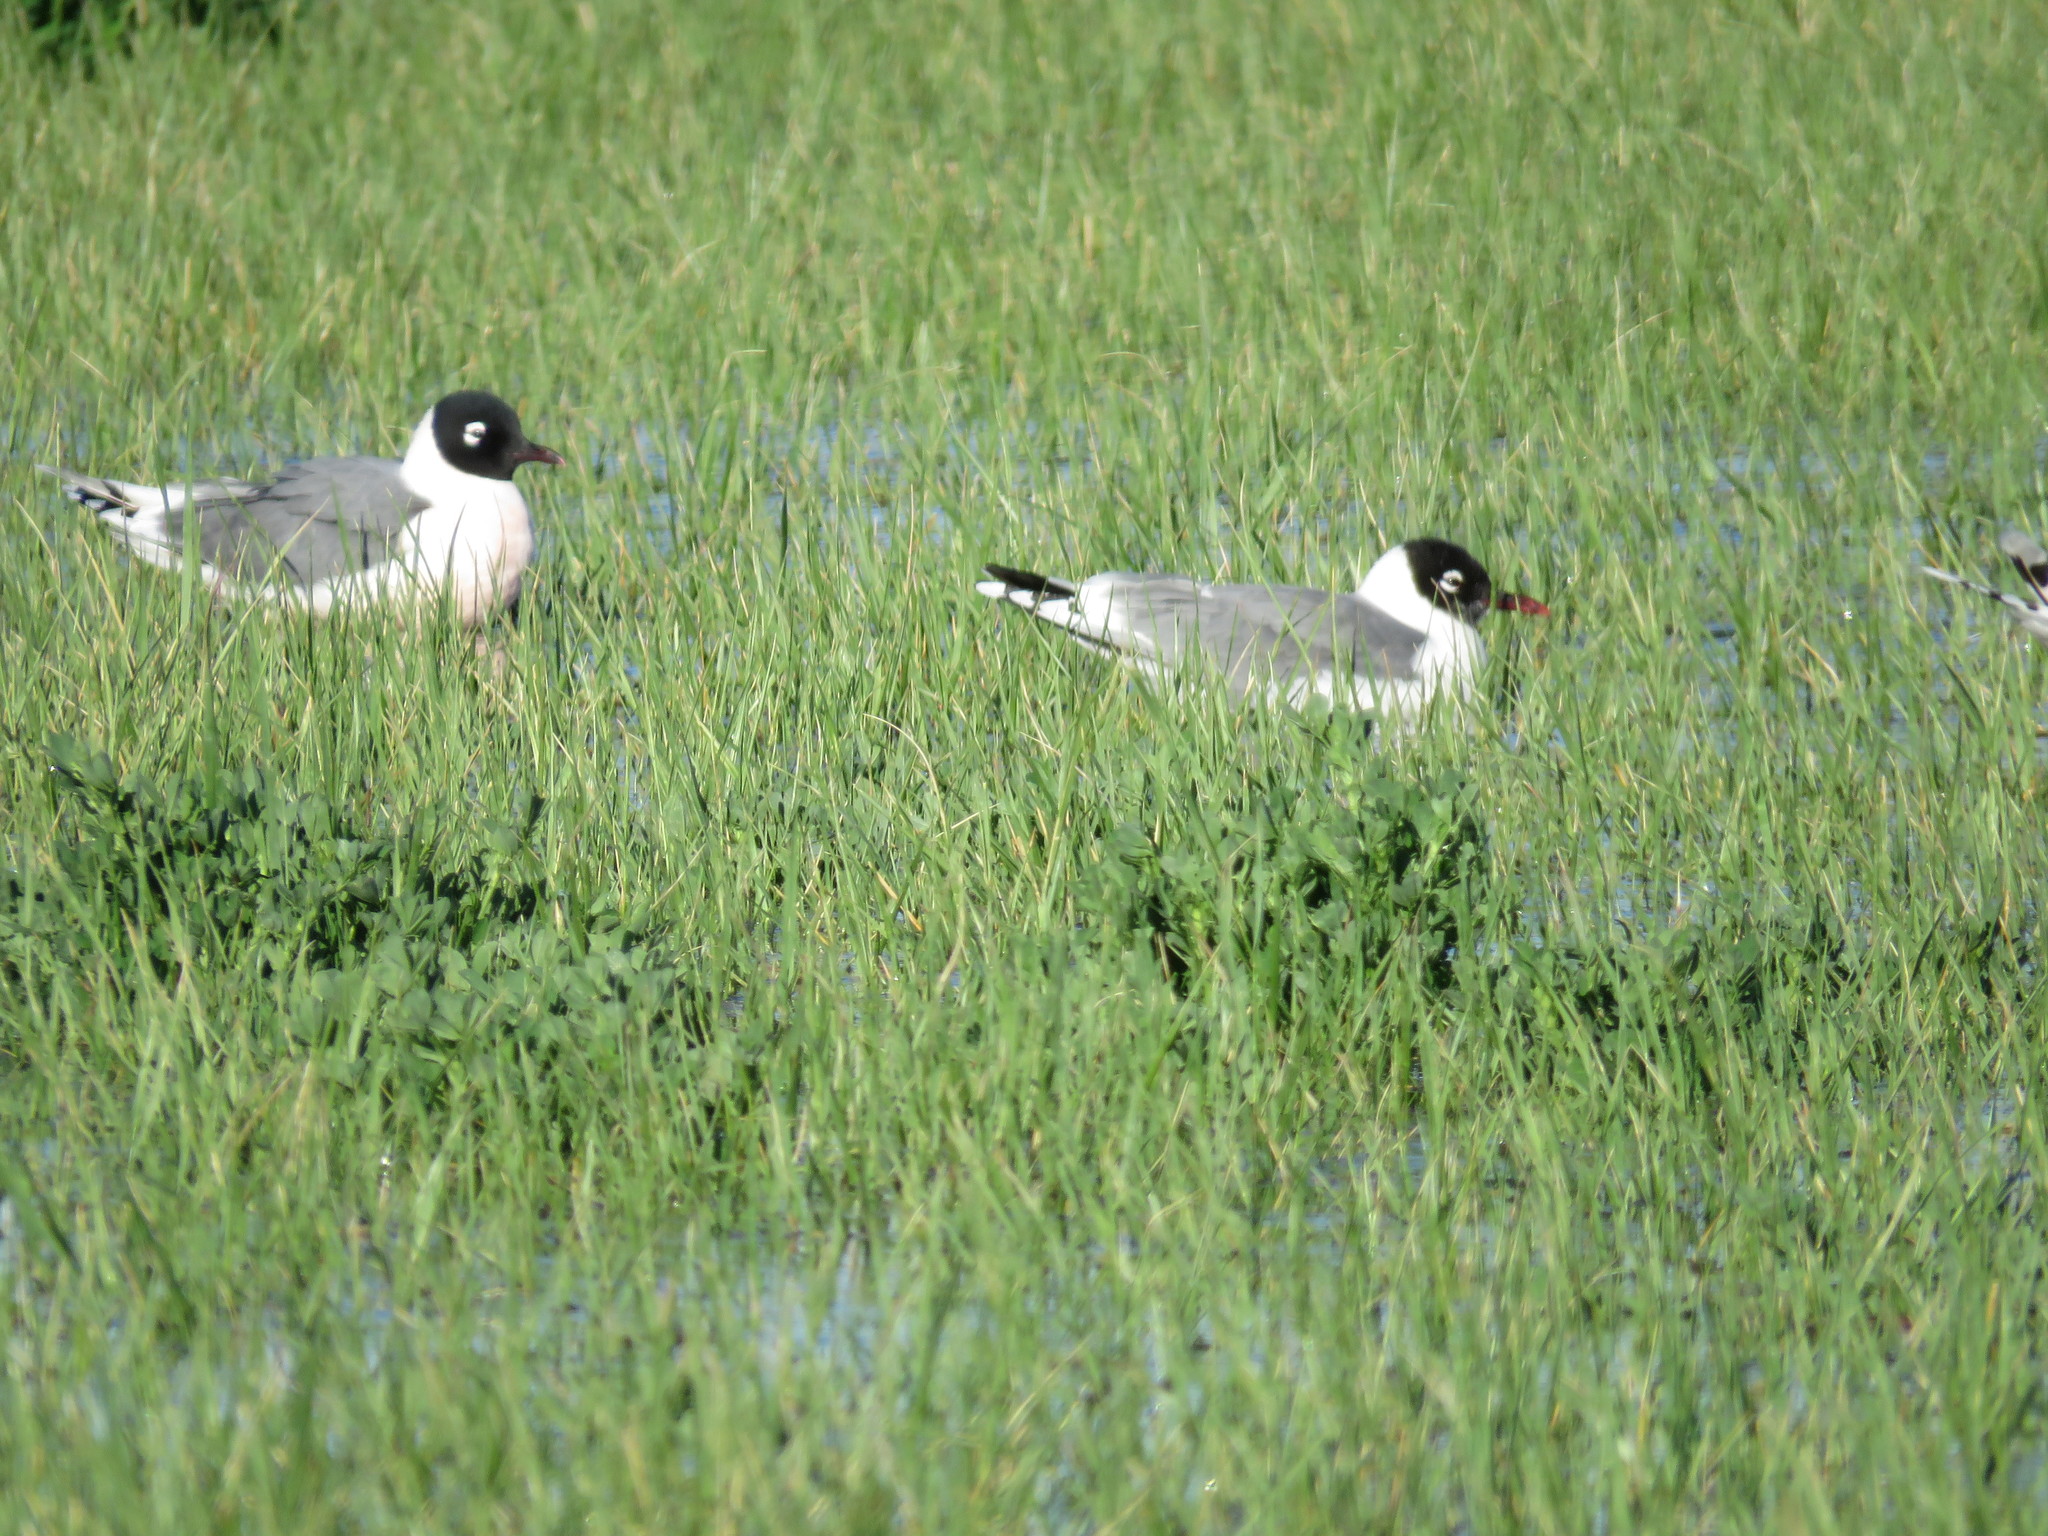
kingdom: Animalia
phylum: Chordata
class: Aves
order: Charadriiformes
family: Laridae
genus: Leucophaeus
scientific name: Leucophaeus pipixcan
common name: Franklin's gull
